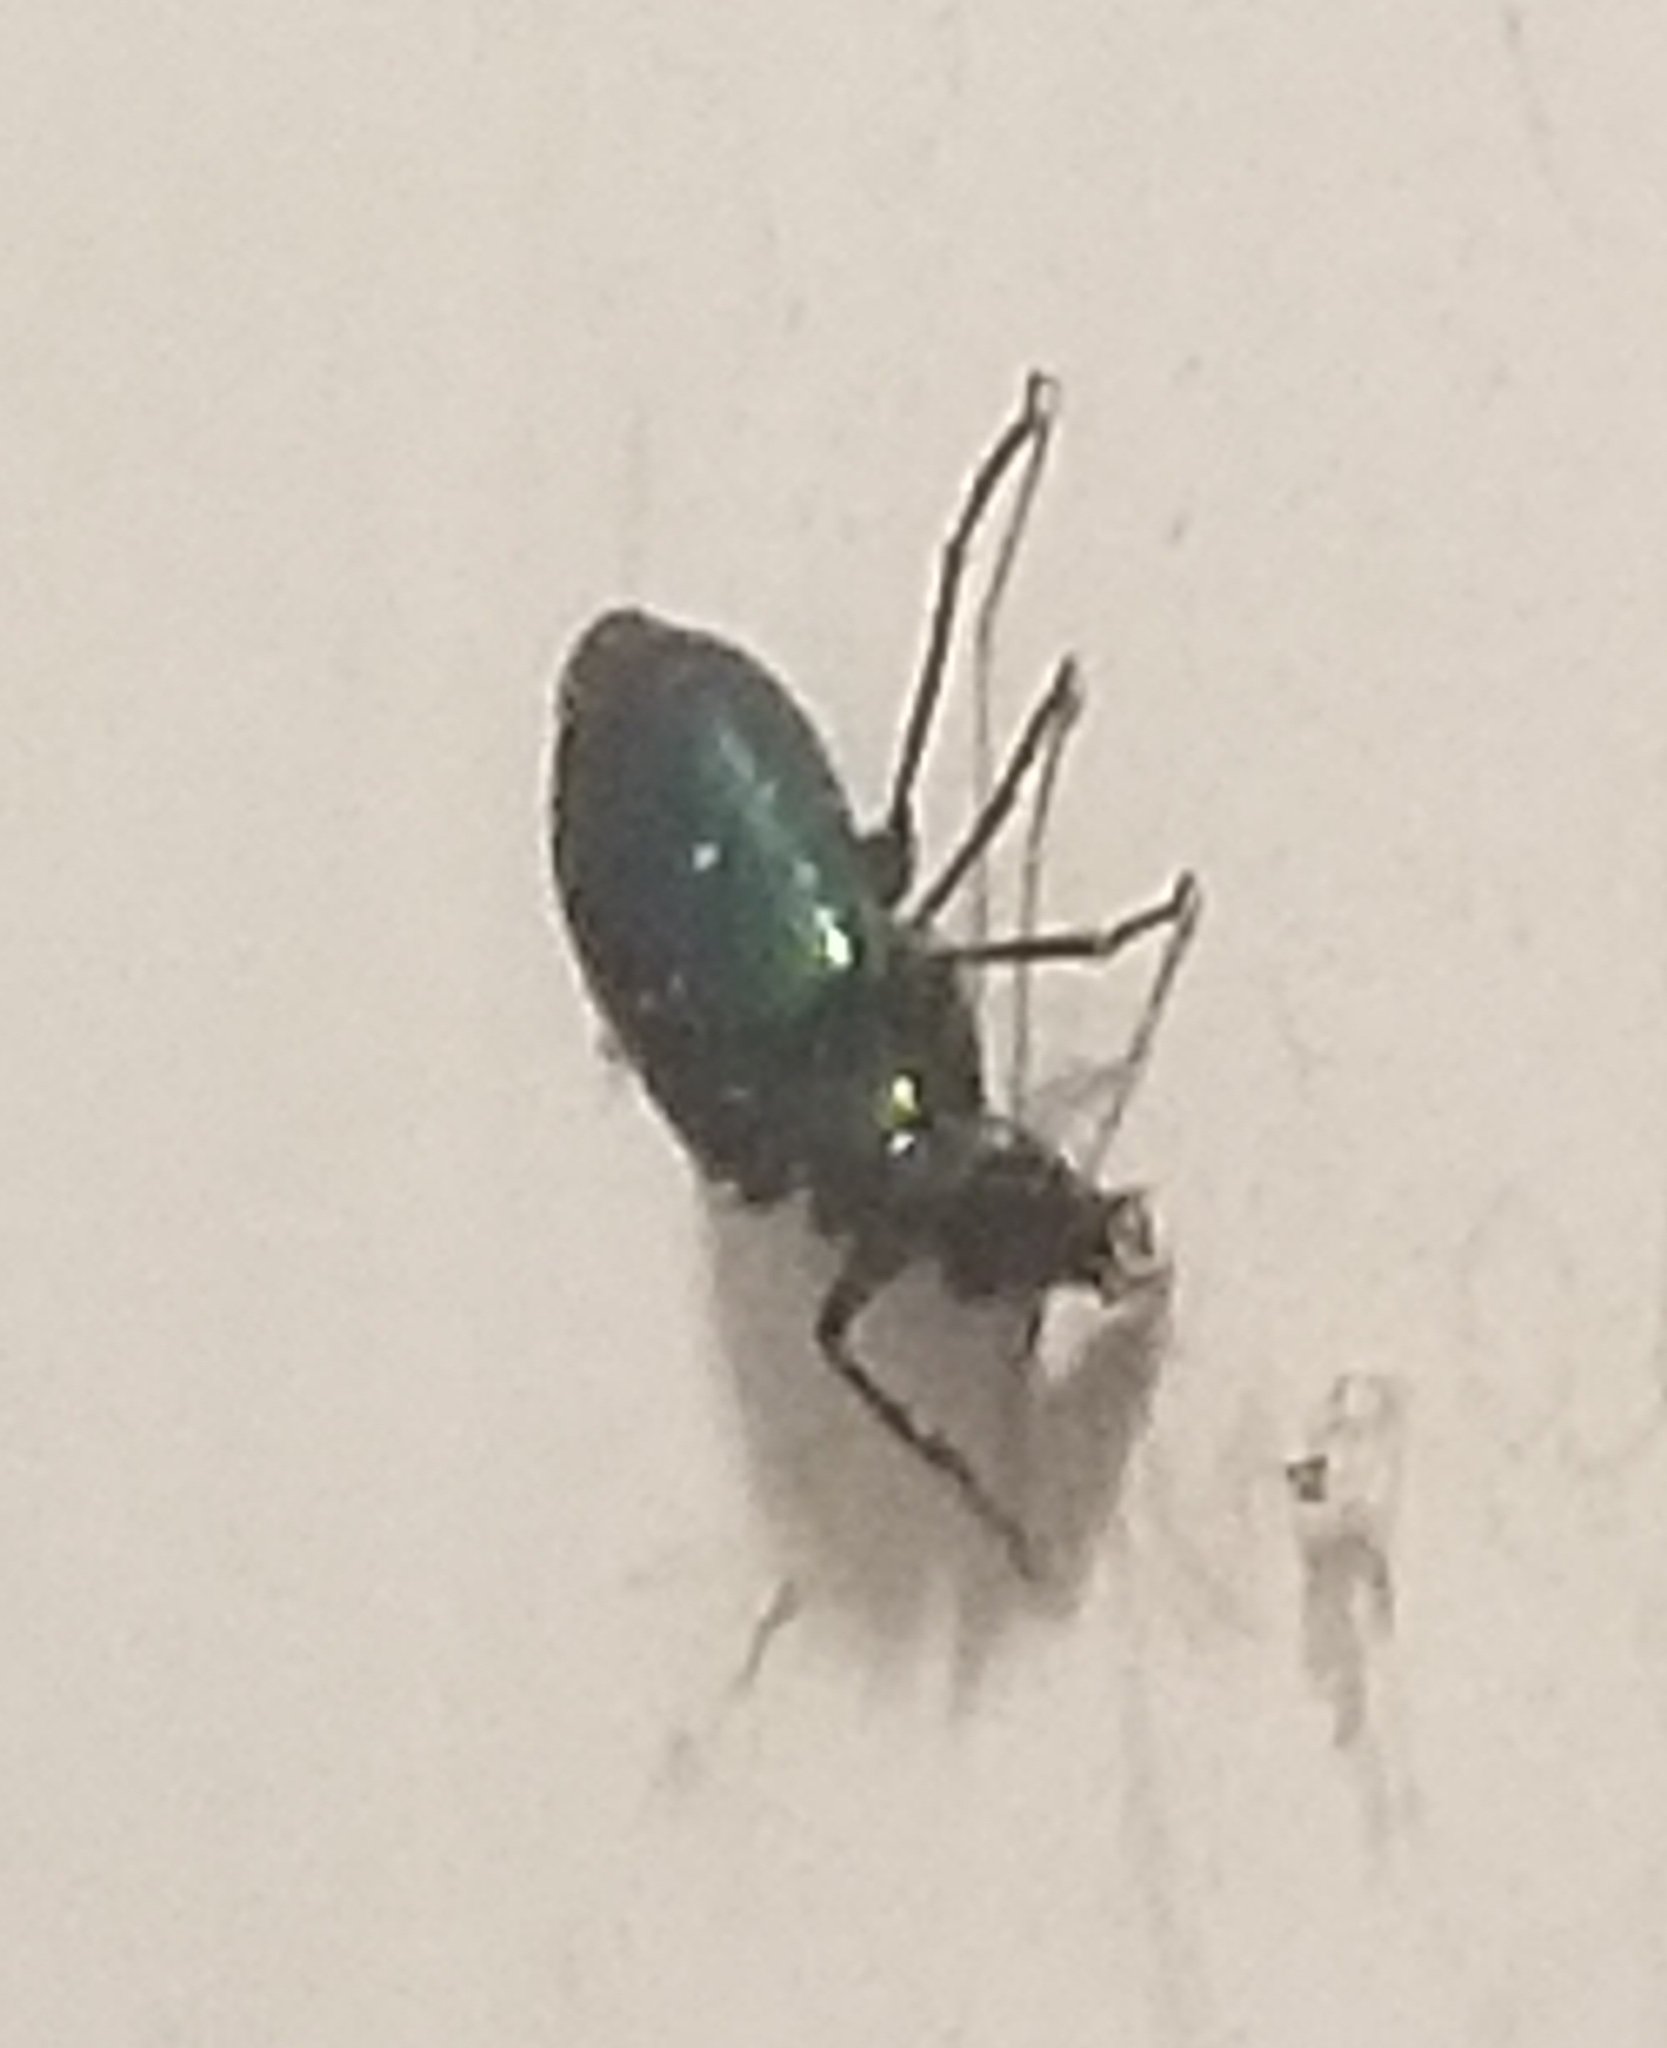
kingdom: Animalia
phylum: Arthropoda
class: Insecta
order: Coleoptera
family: Carabidae
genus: Lebia
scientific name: Lebia viridis
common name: Flower lebia beetle
